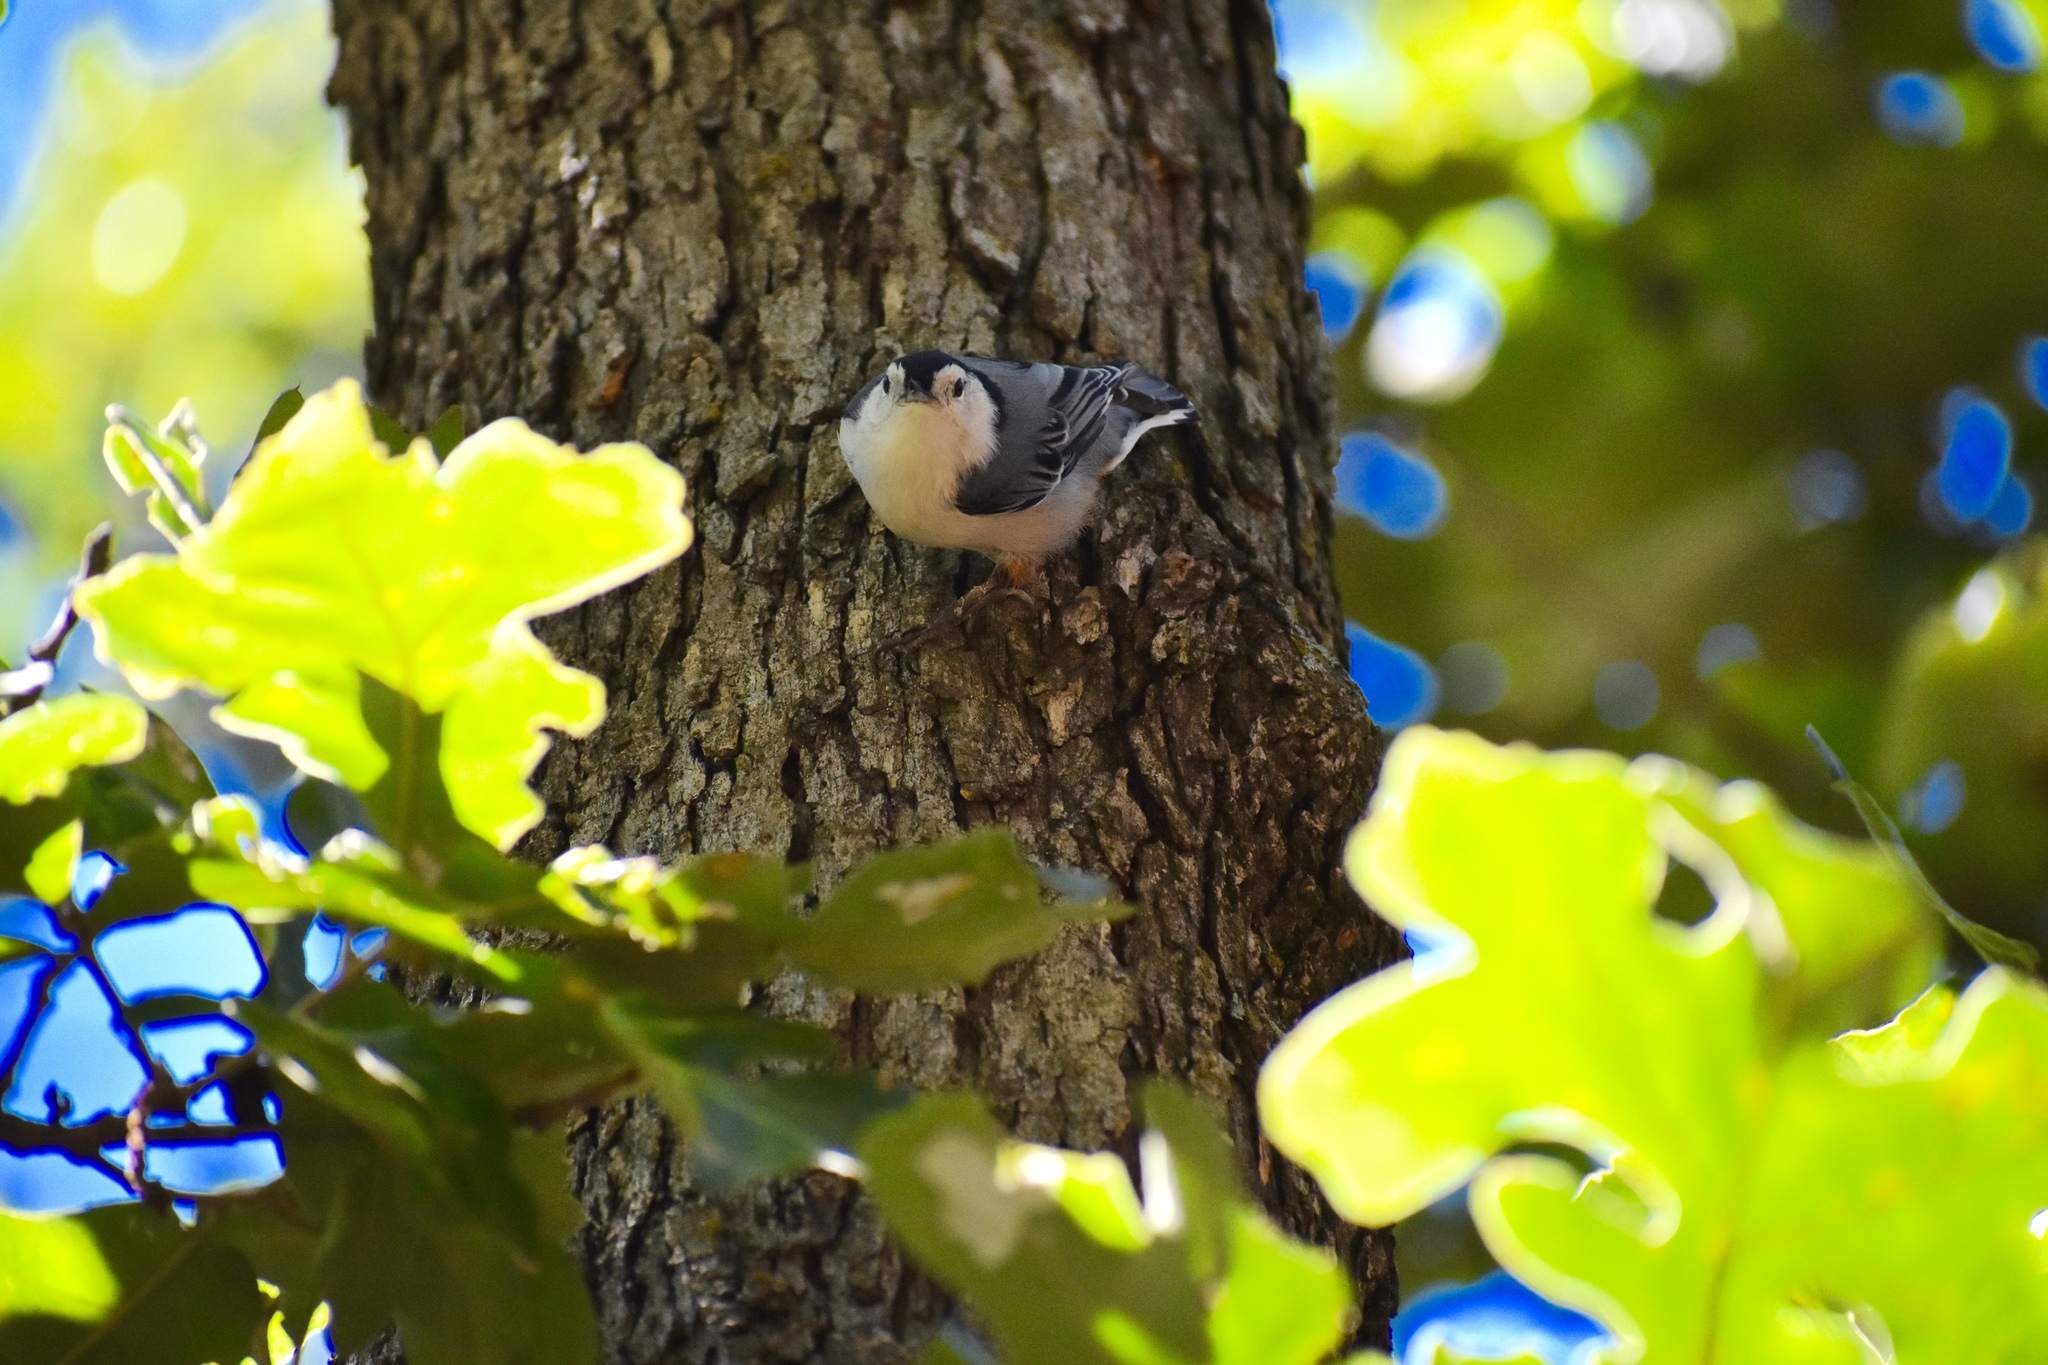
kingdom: Animalia
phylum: Chordata
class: Aves
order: Passeriformes
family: Sittidae
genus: Sitta
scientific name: Sitta carolinensis
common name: White-breasted nuthatch
